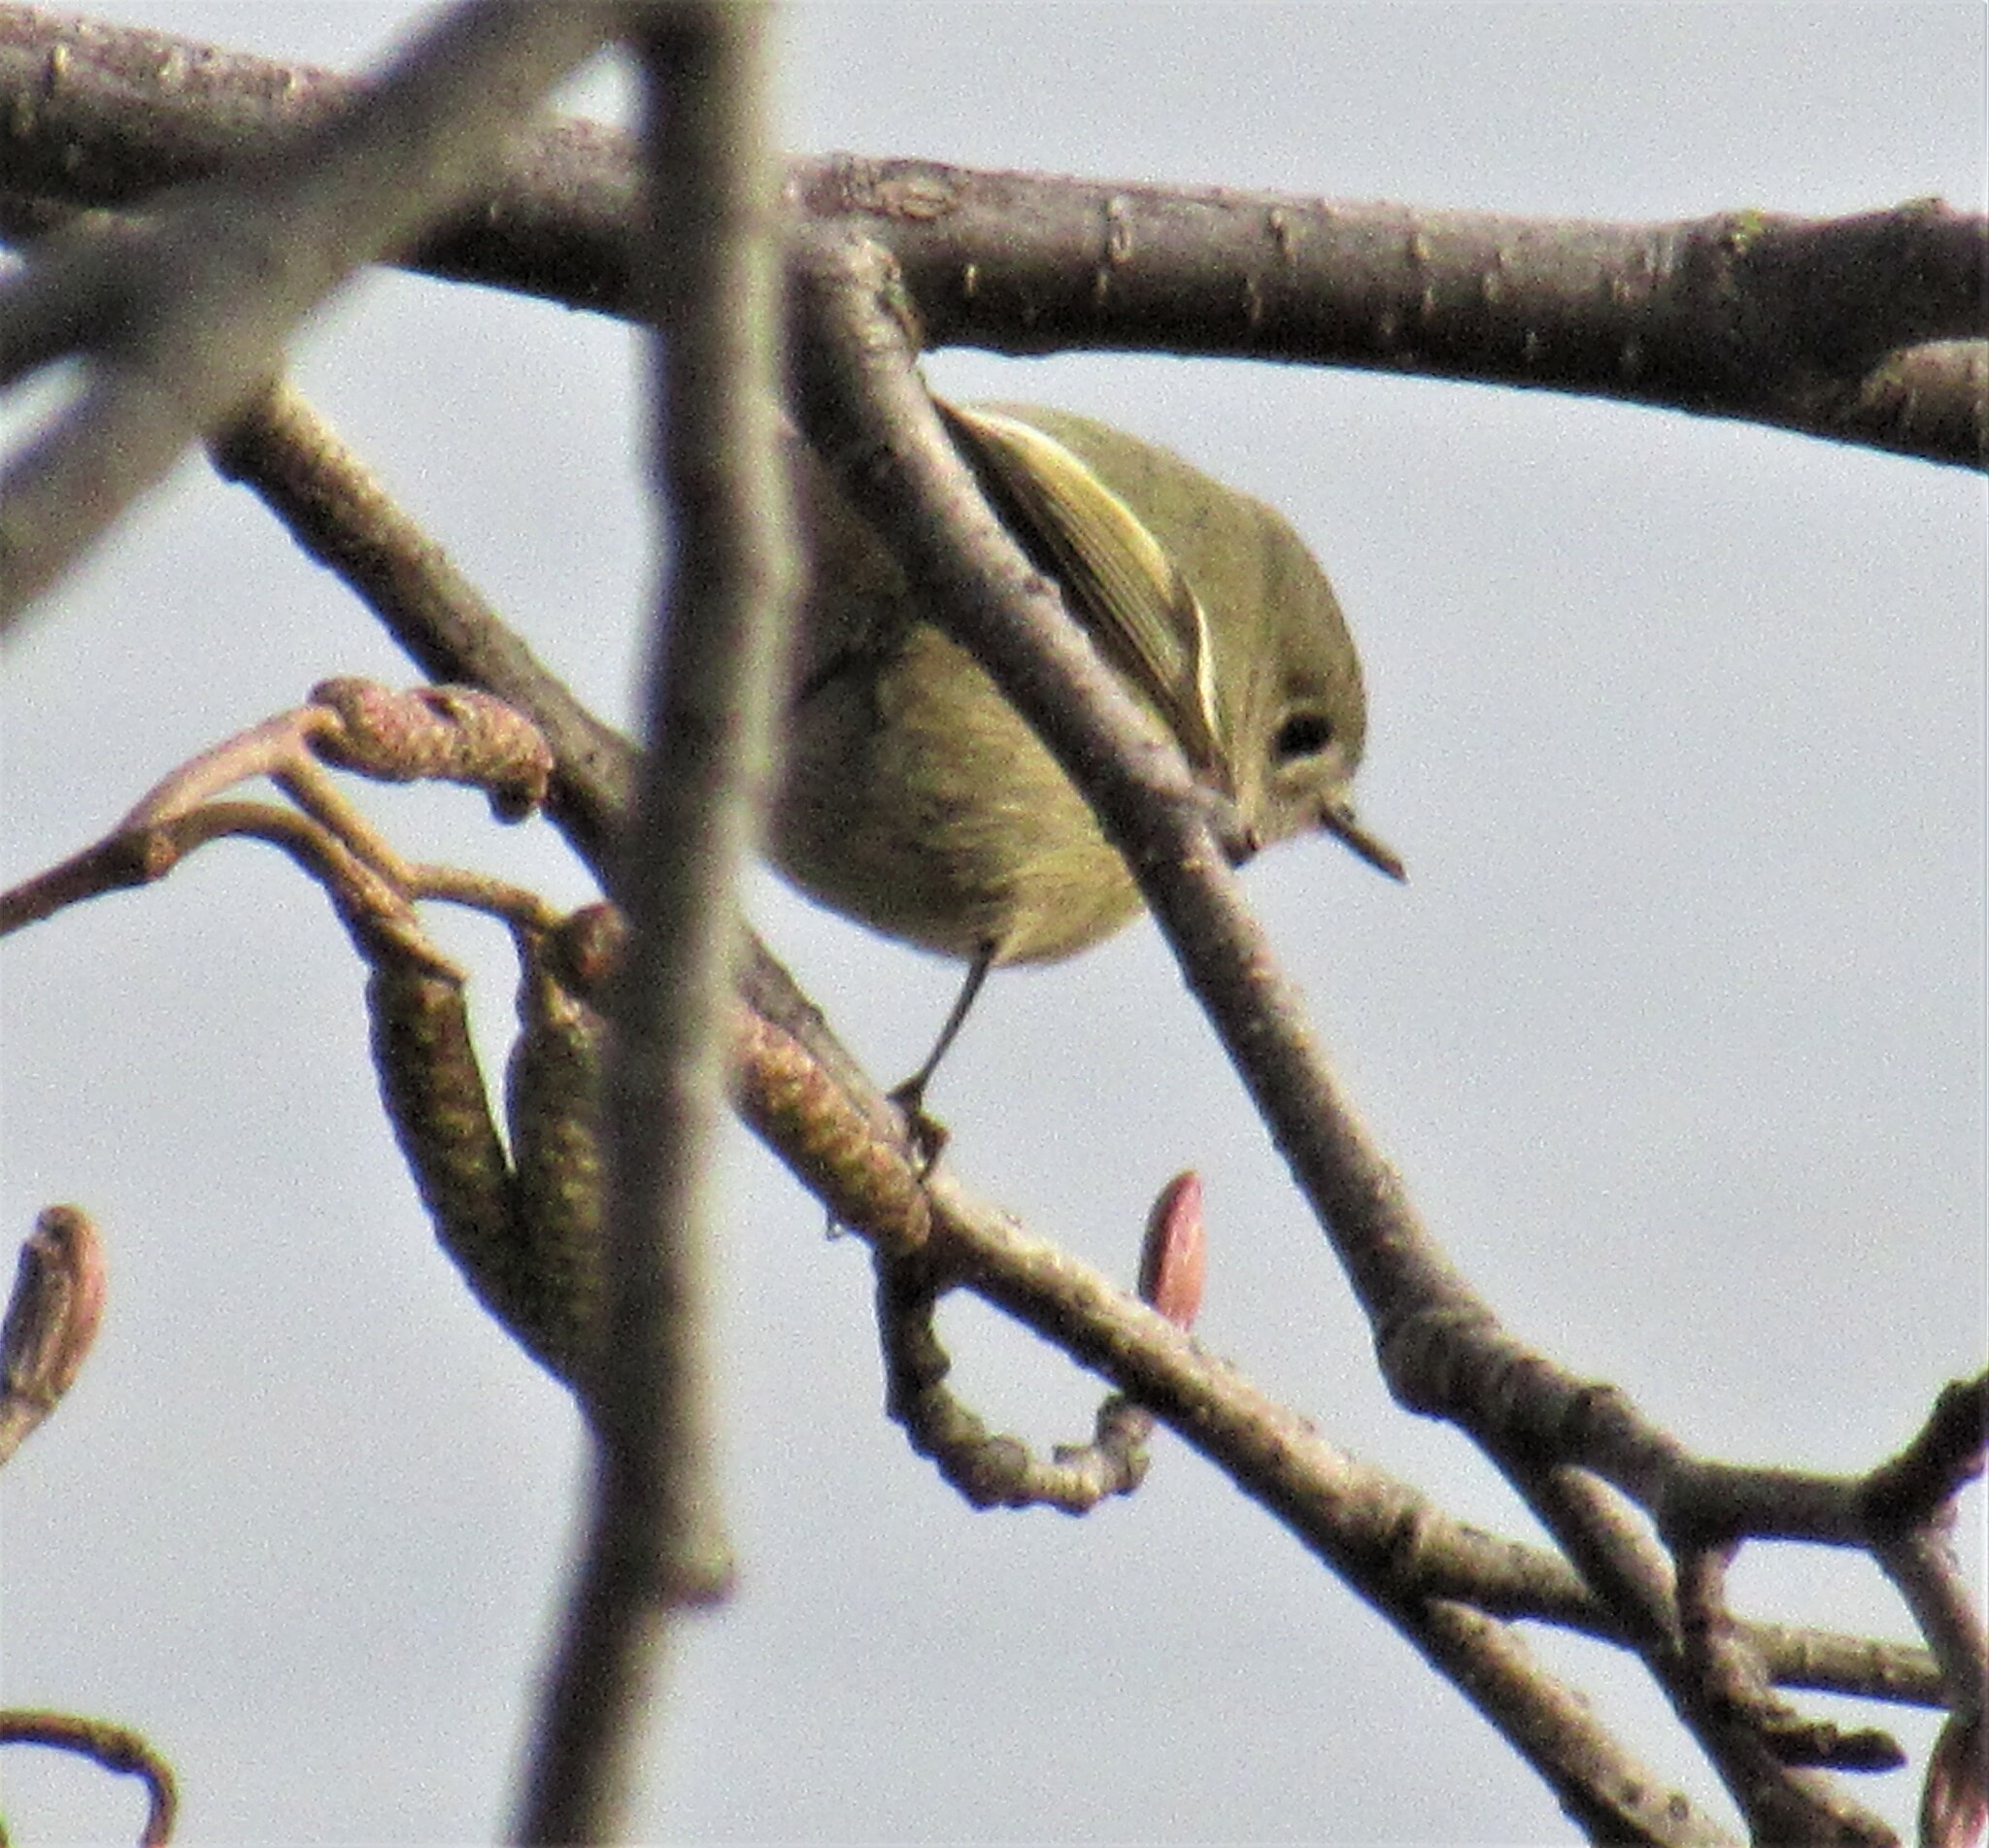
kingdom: Animalia
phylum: Chordata
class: Aves
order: Passeriformes
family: Regulidae
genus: Regulus
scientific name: Regulus calendula
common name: Ruby-crowned kinglet
